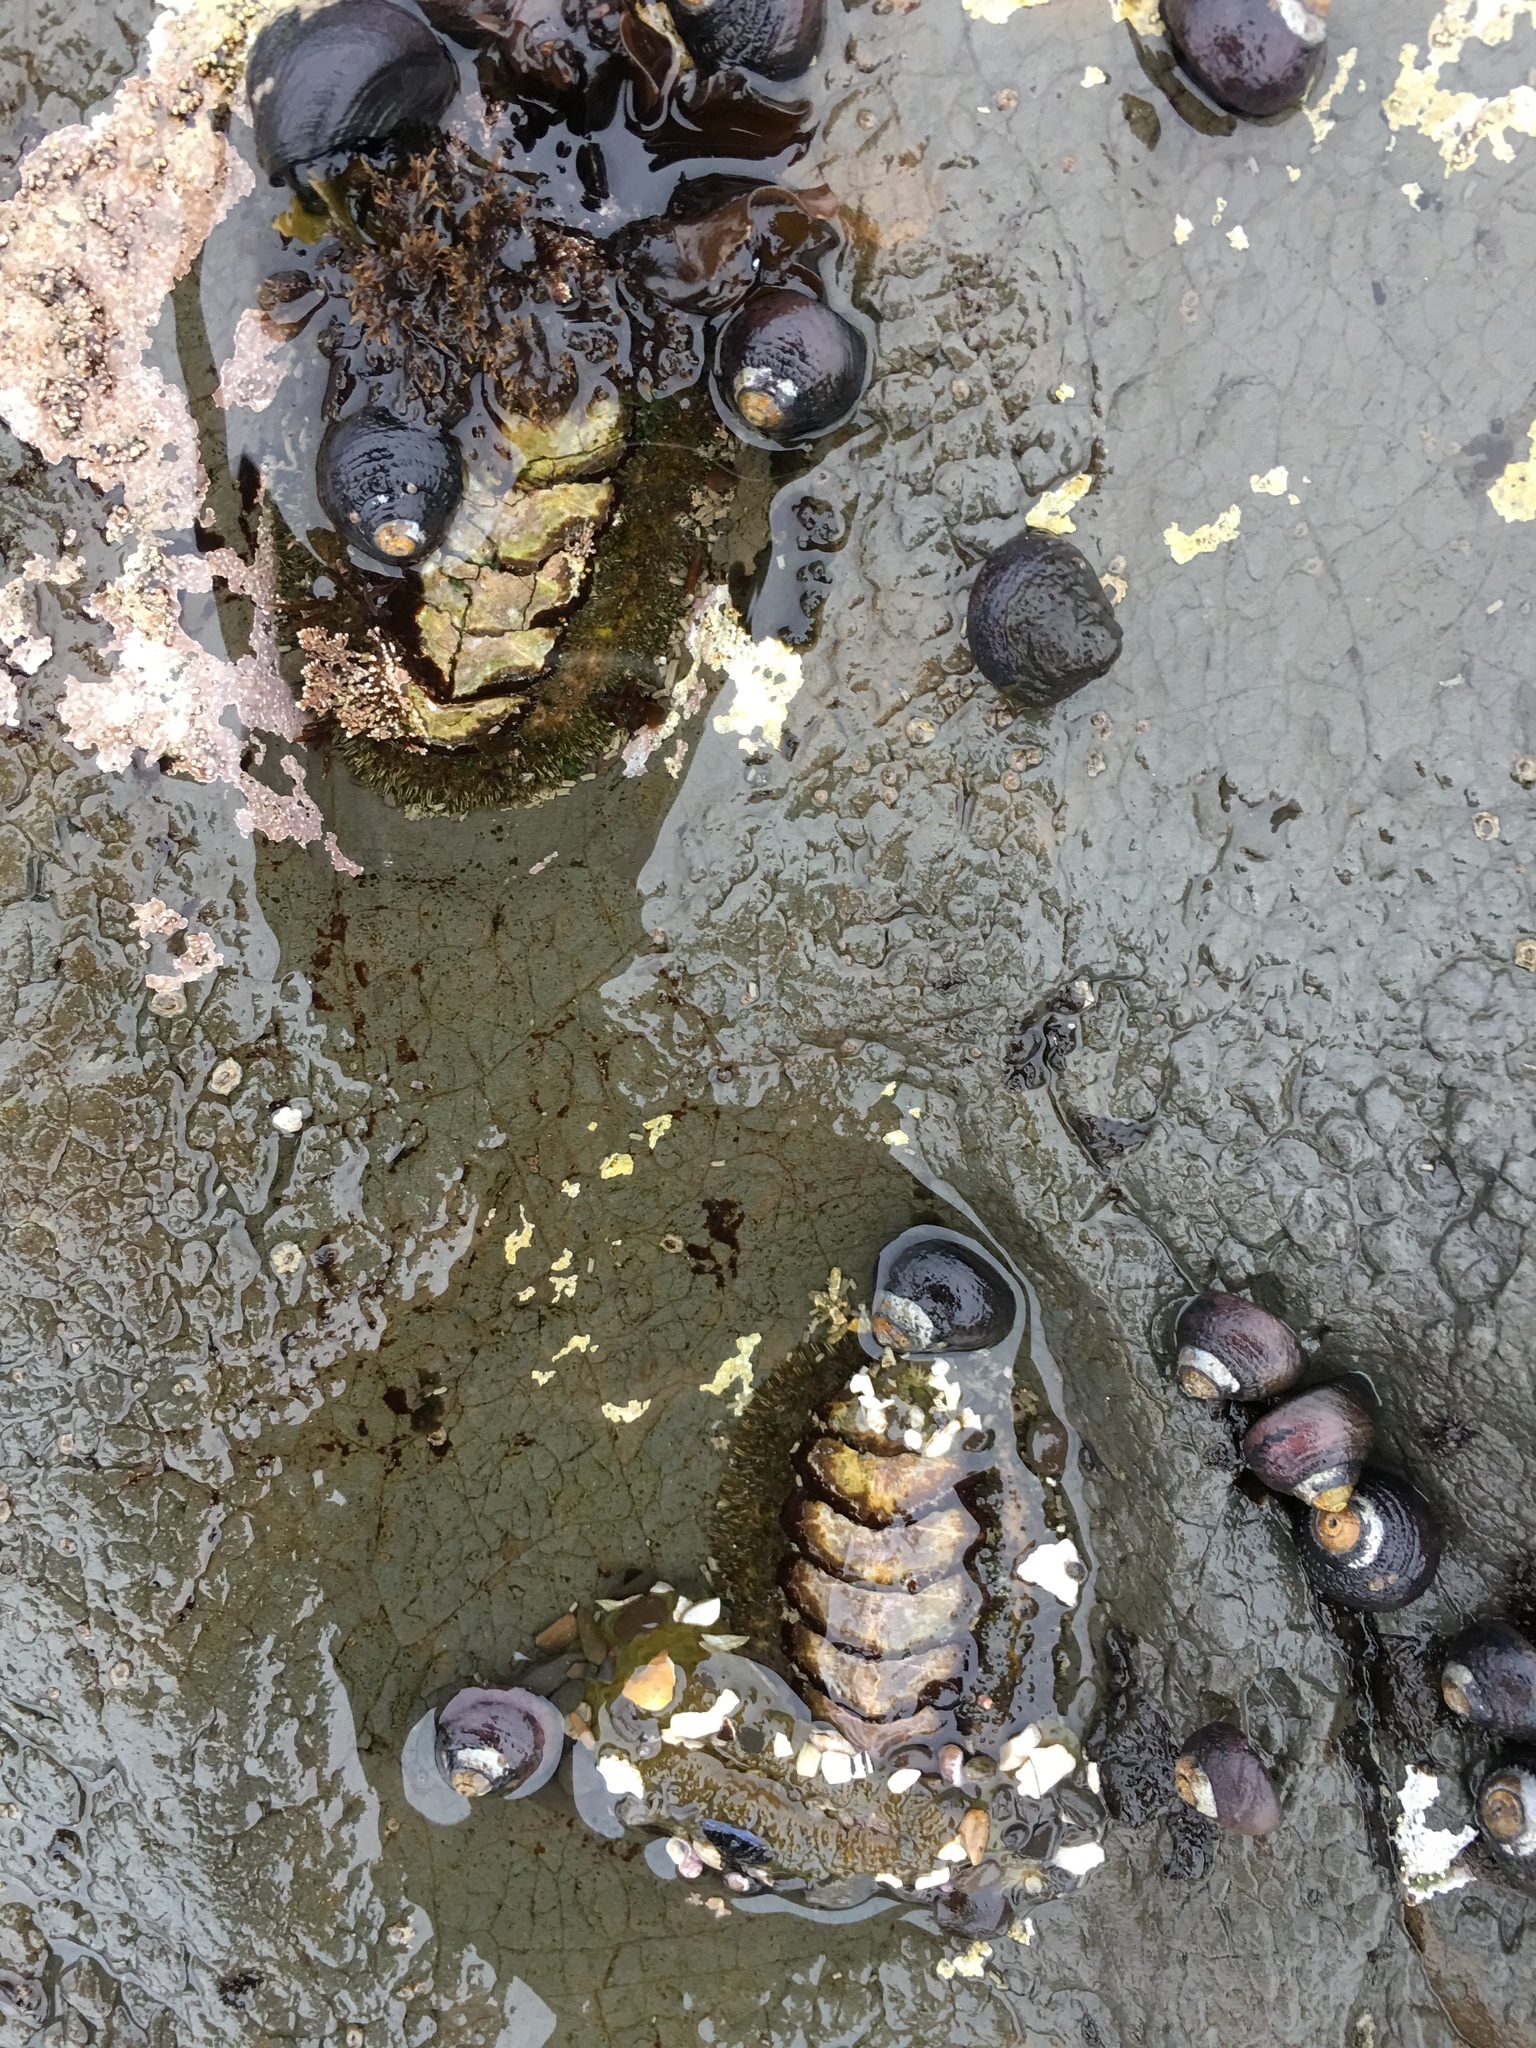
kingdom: Animalia
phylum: Mollusca
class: Polyplacophora
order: Chitonida
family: Mopaliidae
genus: Mopalia
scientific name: Mopalia muscosa
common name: Mossy chiton
